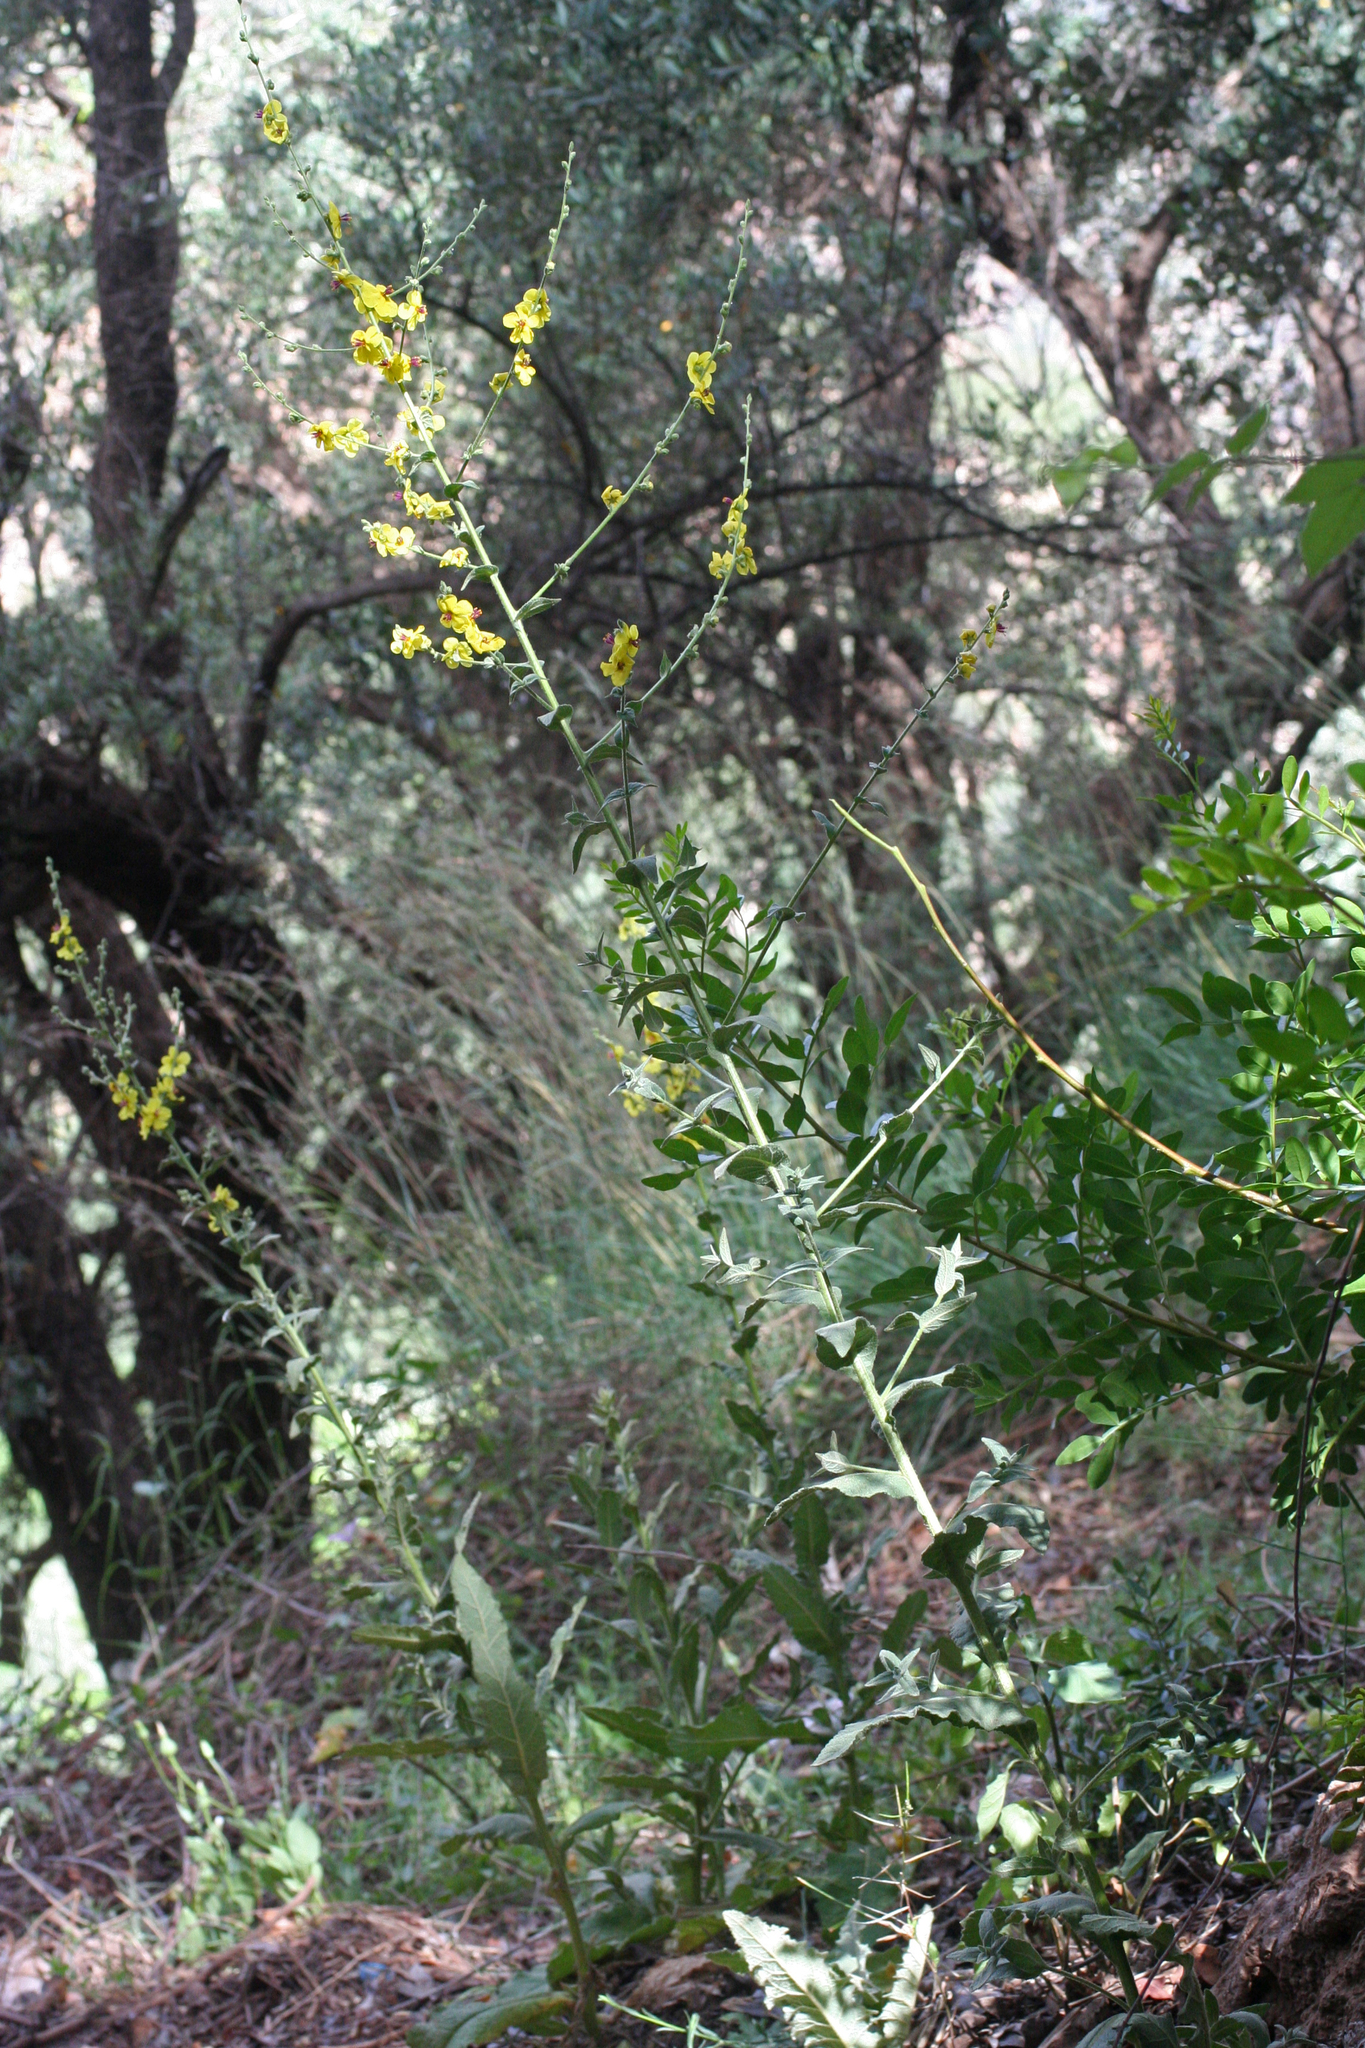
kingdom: Plantae
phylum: Tracheophyta
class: Magnoliopsida
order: Lamiales
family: Scrophulariaceae
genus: Verbascum
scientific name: Verbascum sinuatum
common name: Wavyleaf mullein
